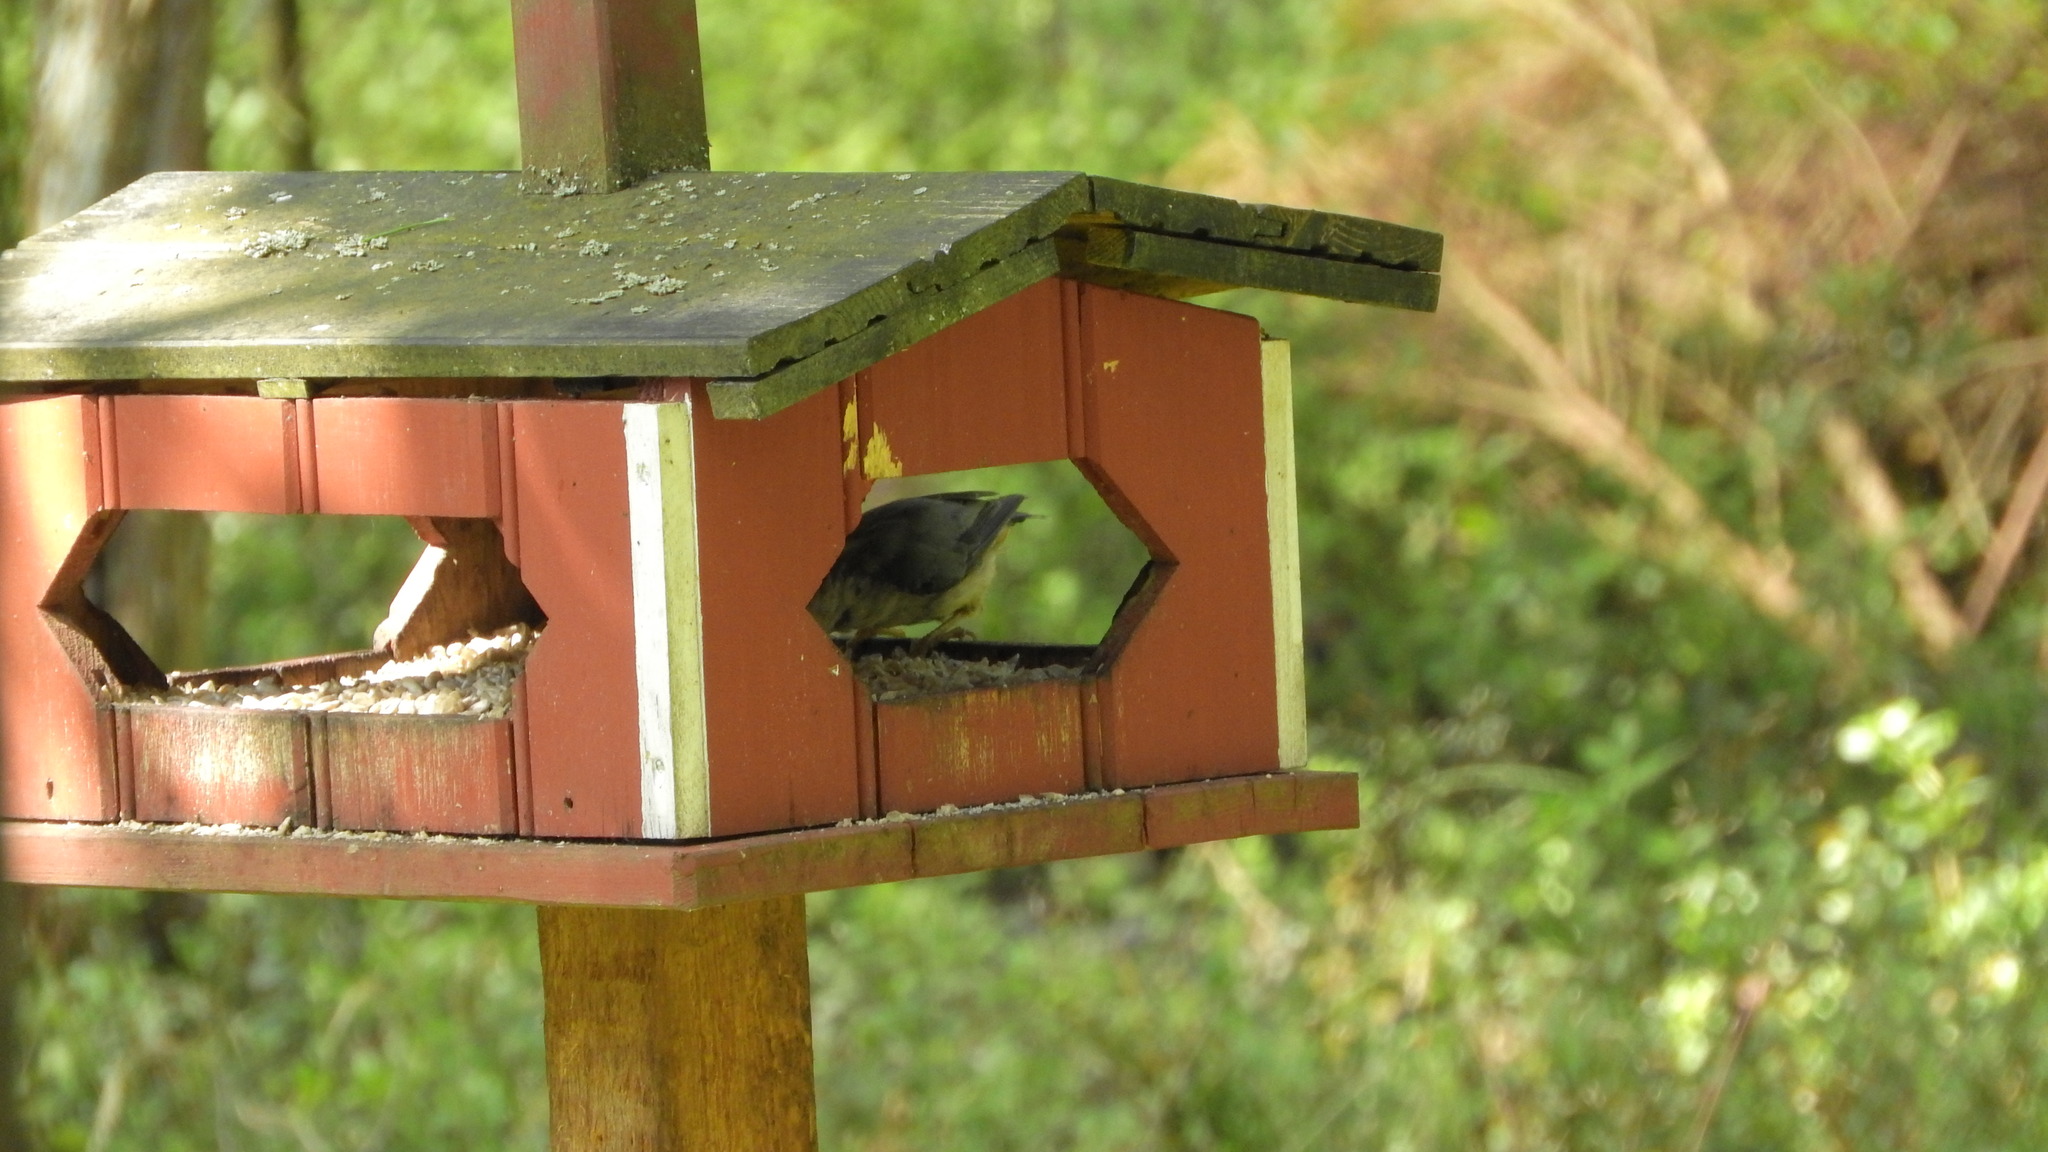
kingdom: Animalia
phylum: Chordata
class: Aves
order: Passeriformes
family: Sittidae
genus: Sitta
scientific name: Sitta europaea
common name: Eurasian nuthatch
